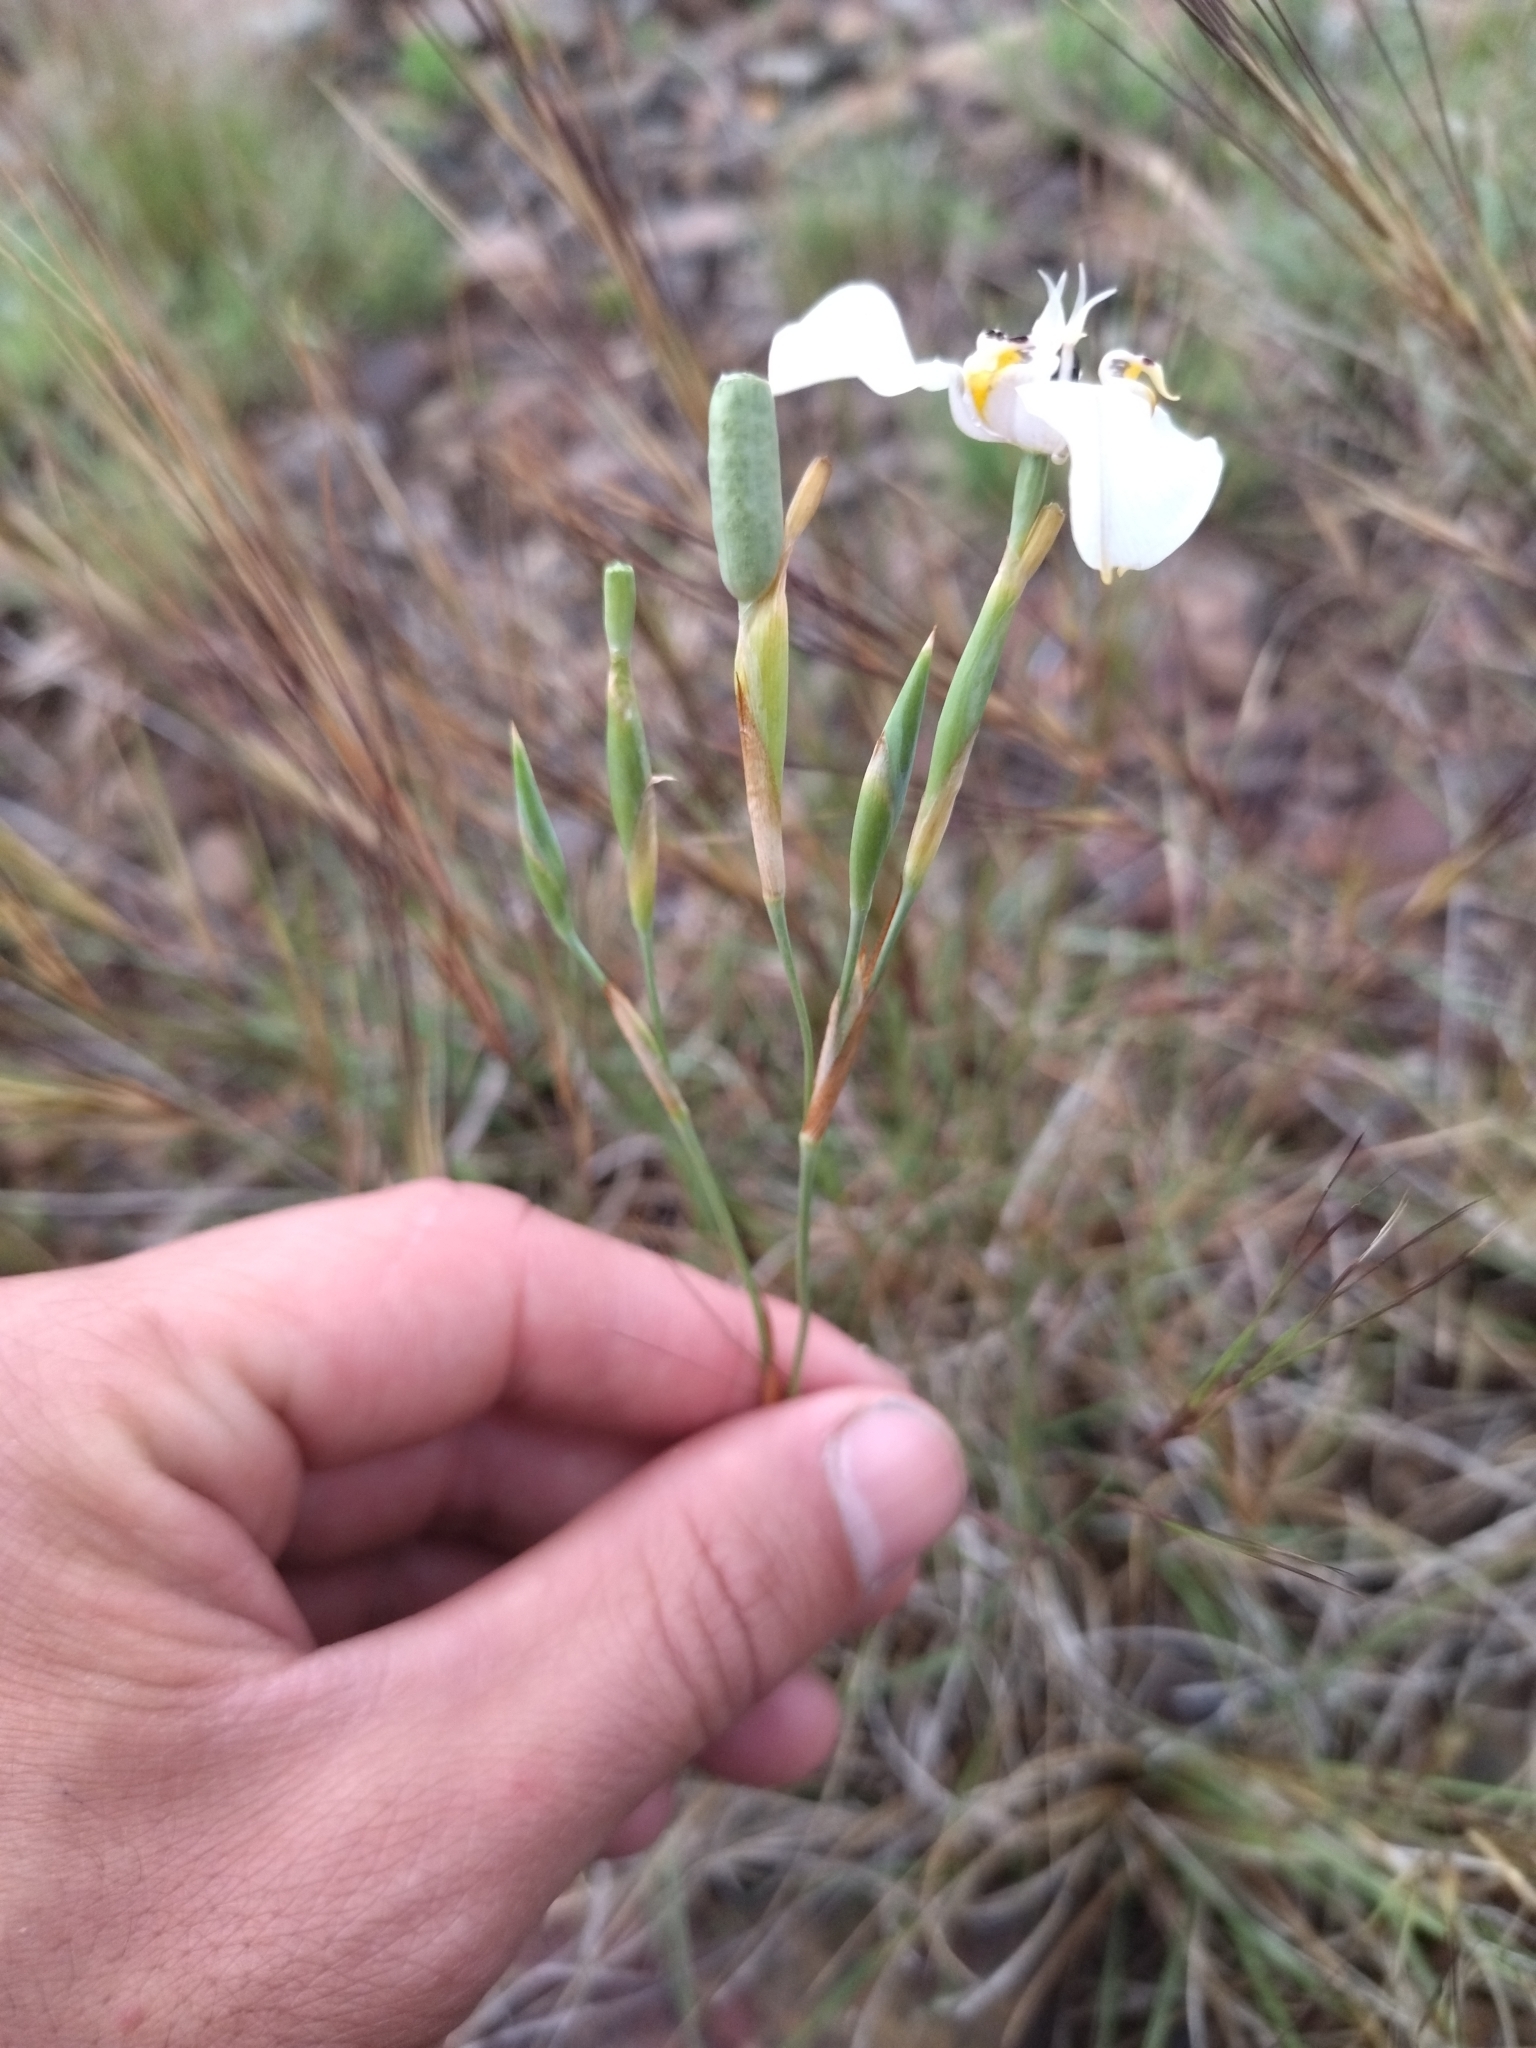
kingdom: Plantae
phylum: Tracheophyta
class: Liliopsida
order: Asparagales
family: Iridaceae
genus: Cypella
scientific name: Cypella osteniana
